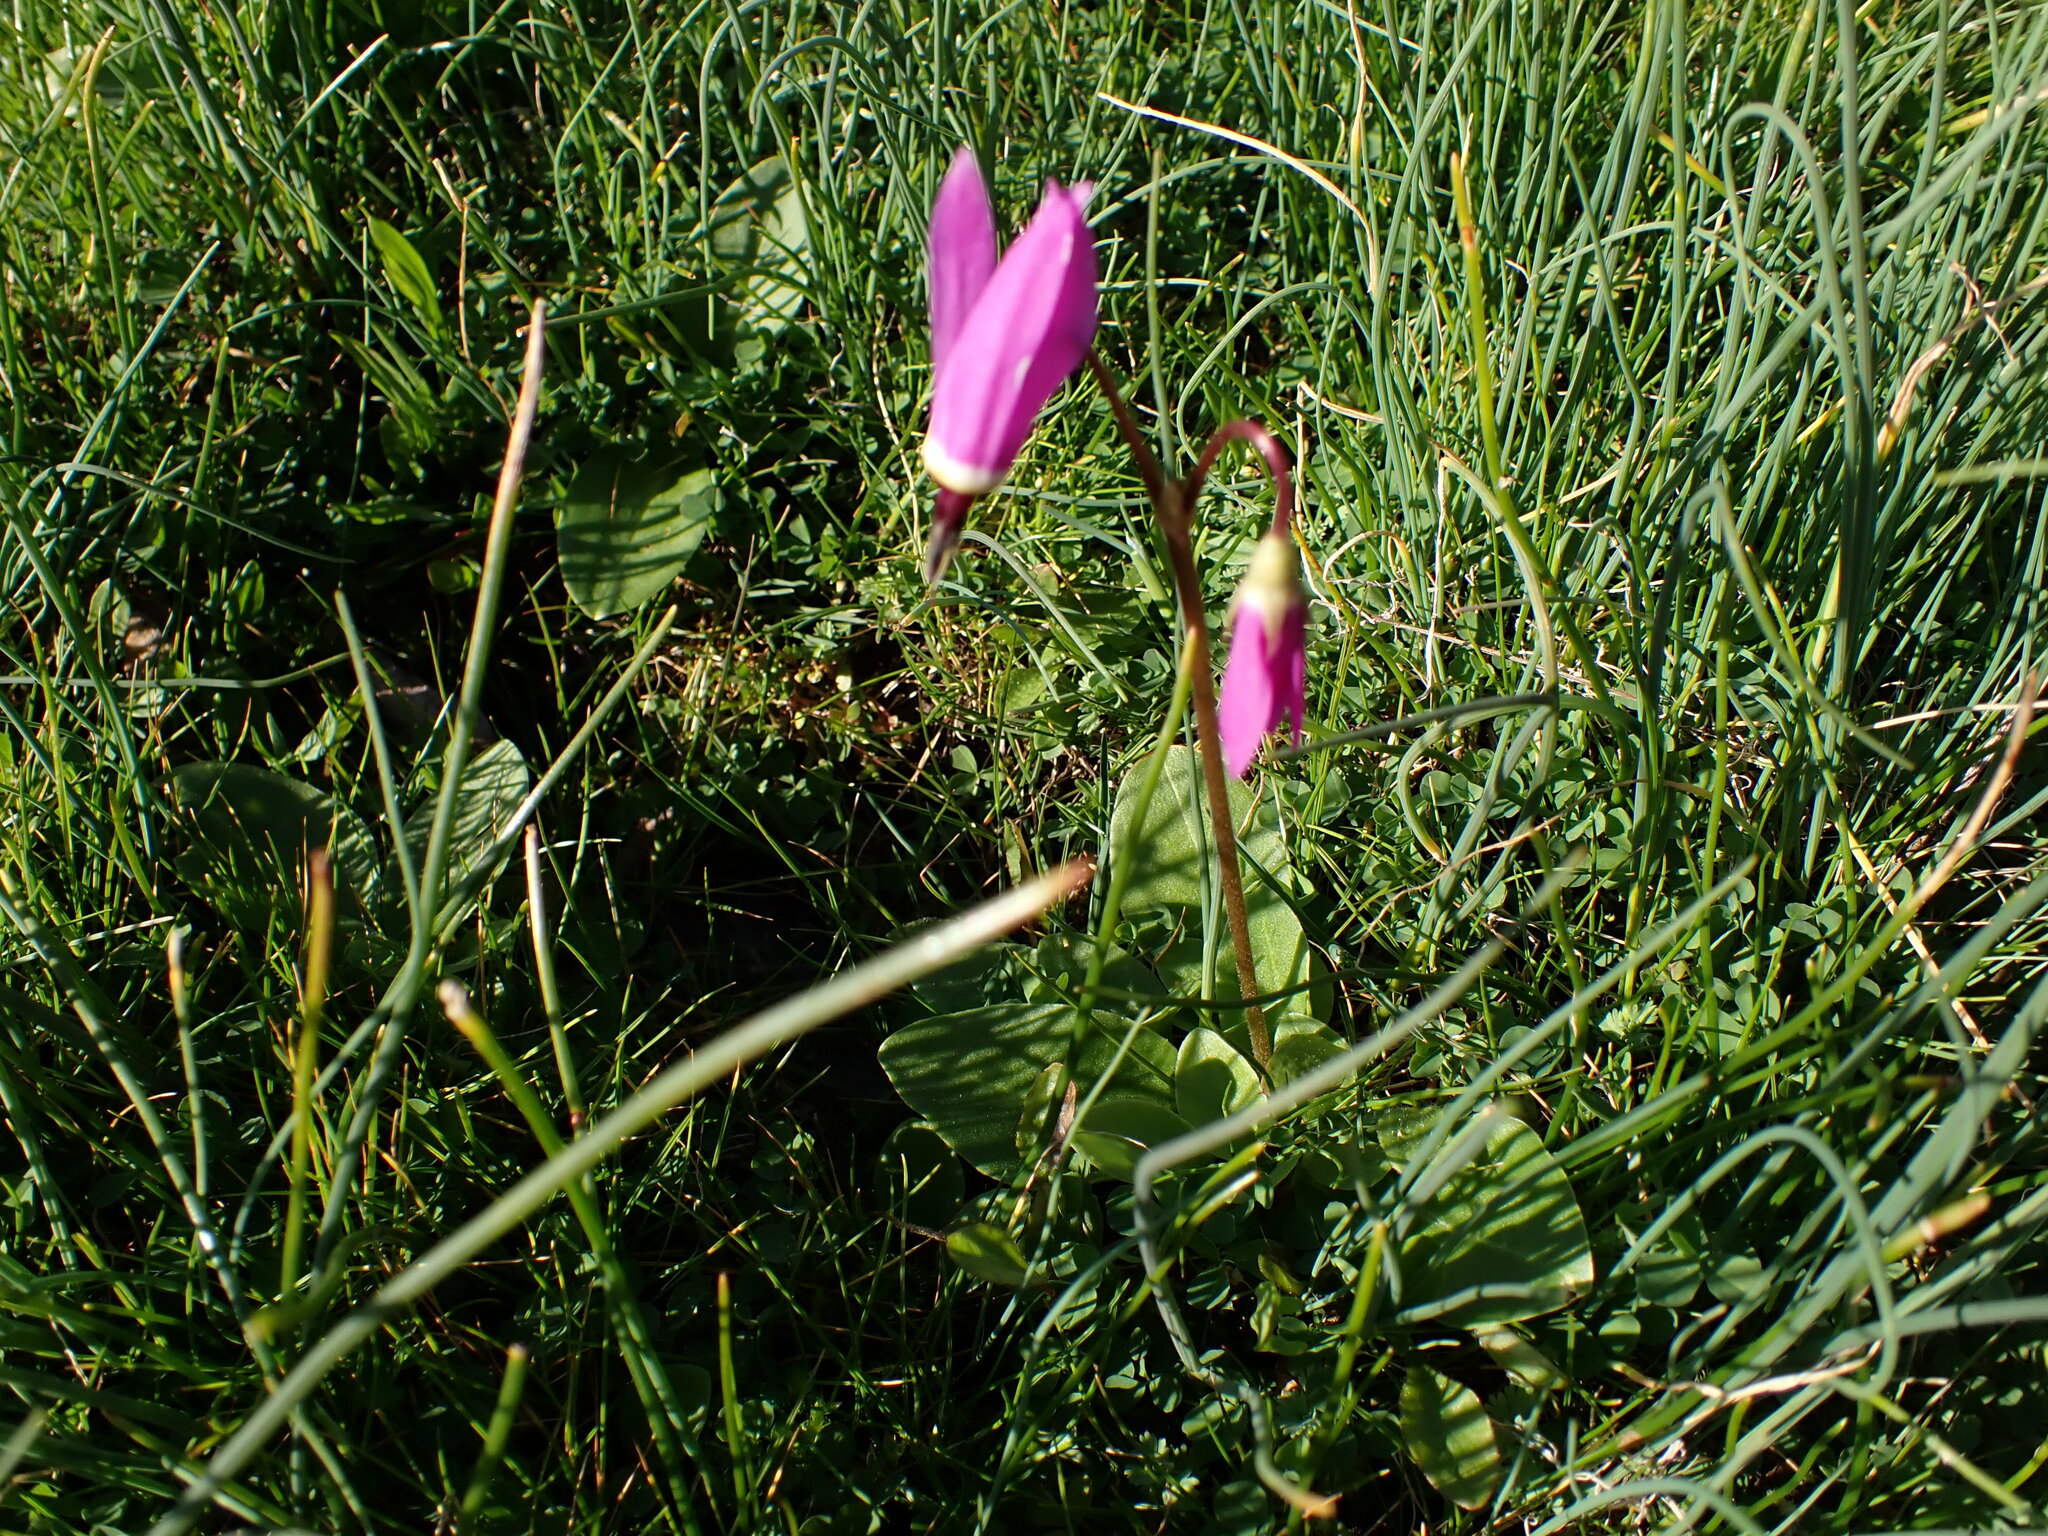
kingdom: Plantae
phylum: Tracheophyta
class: Magnoliopsida
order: Ericales
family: Primulaceae
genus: Dodecatheon
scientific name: Dodecatheon hendersonii
